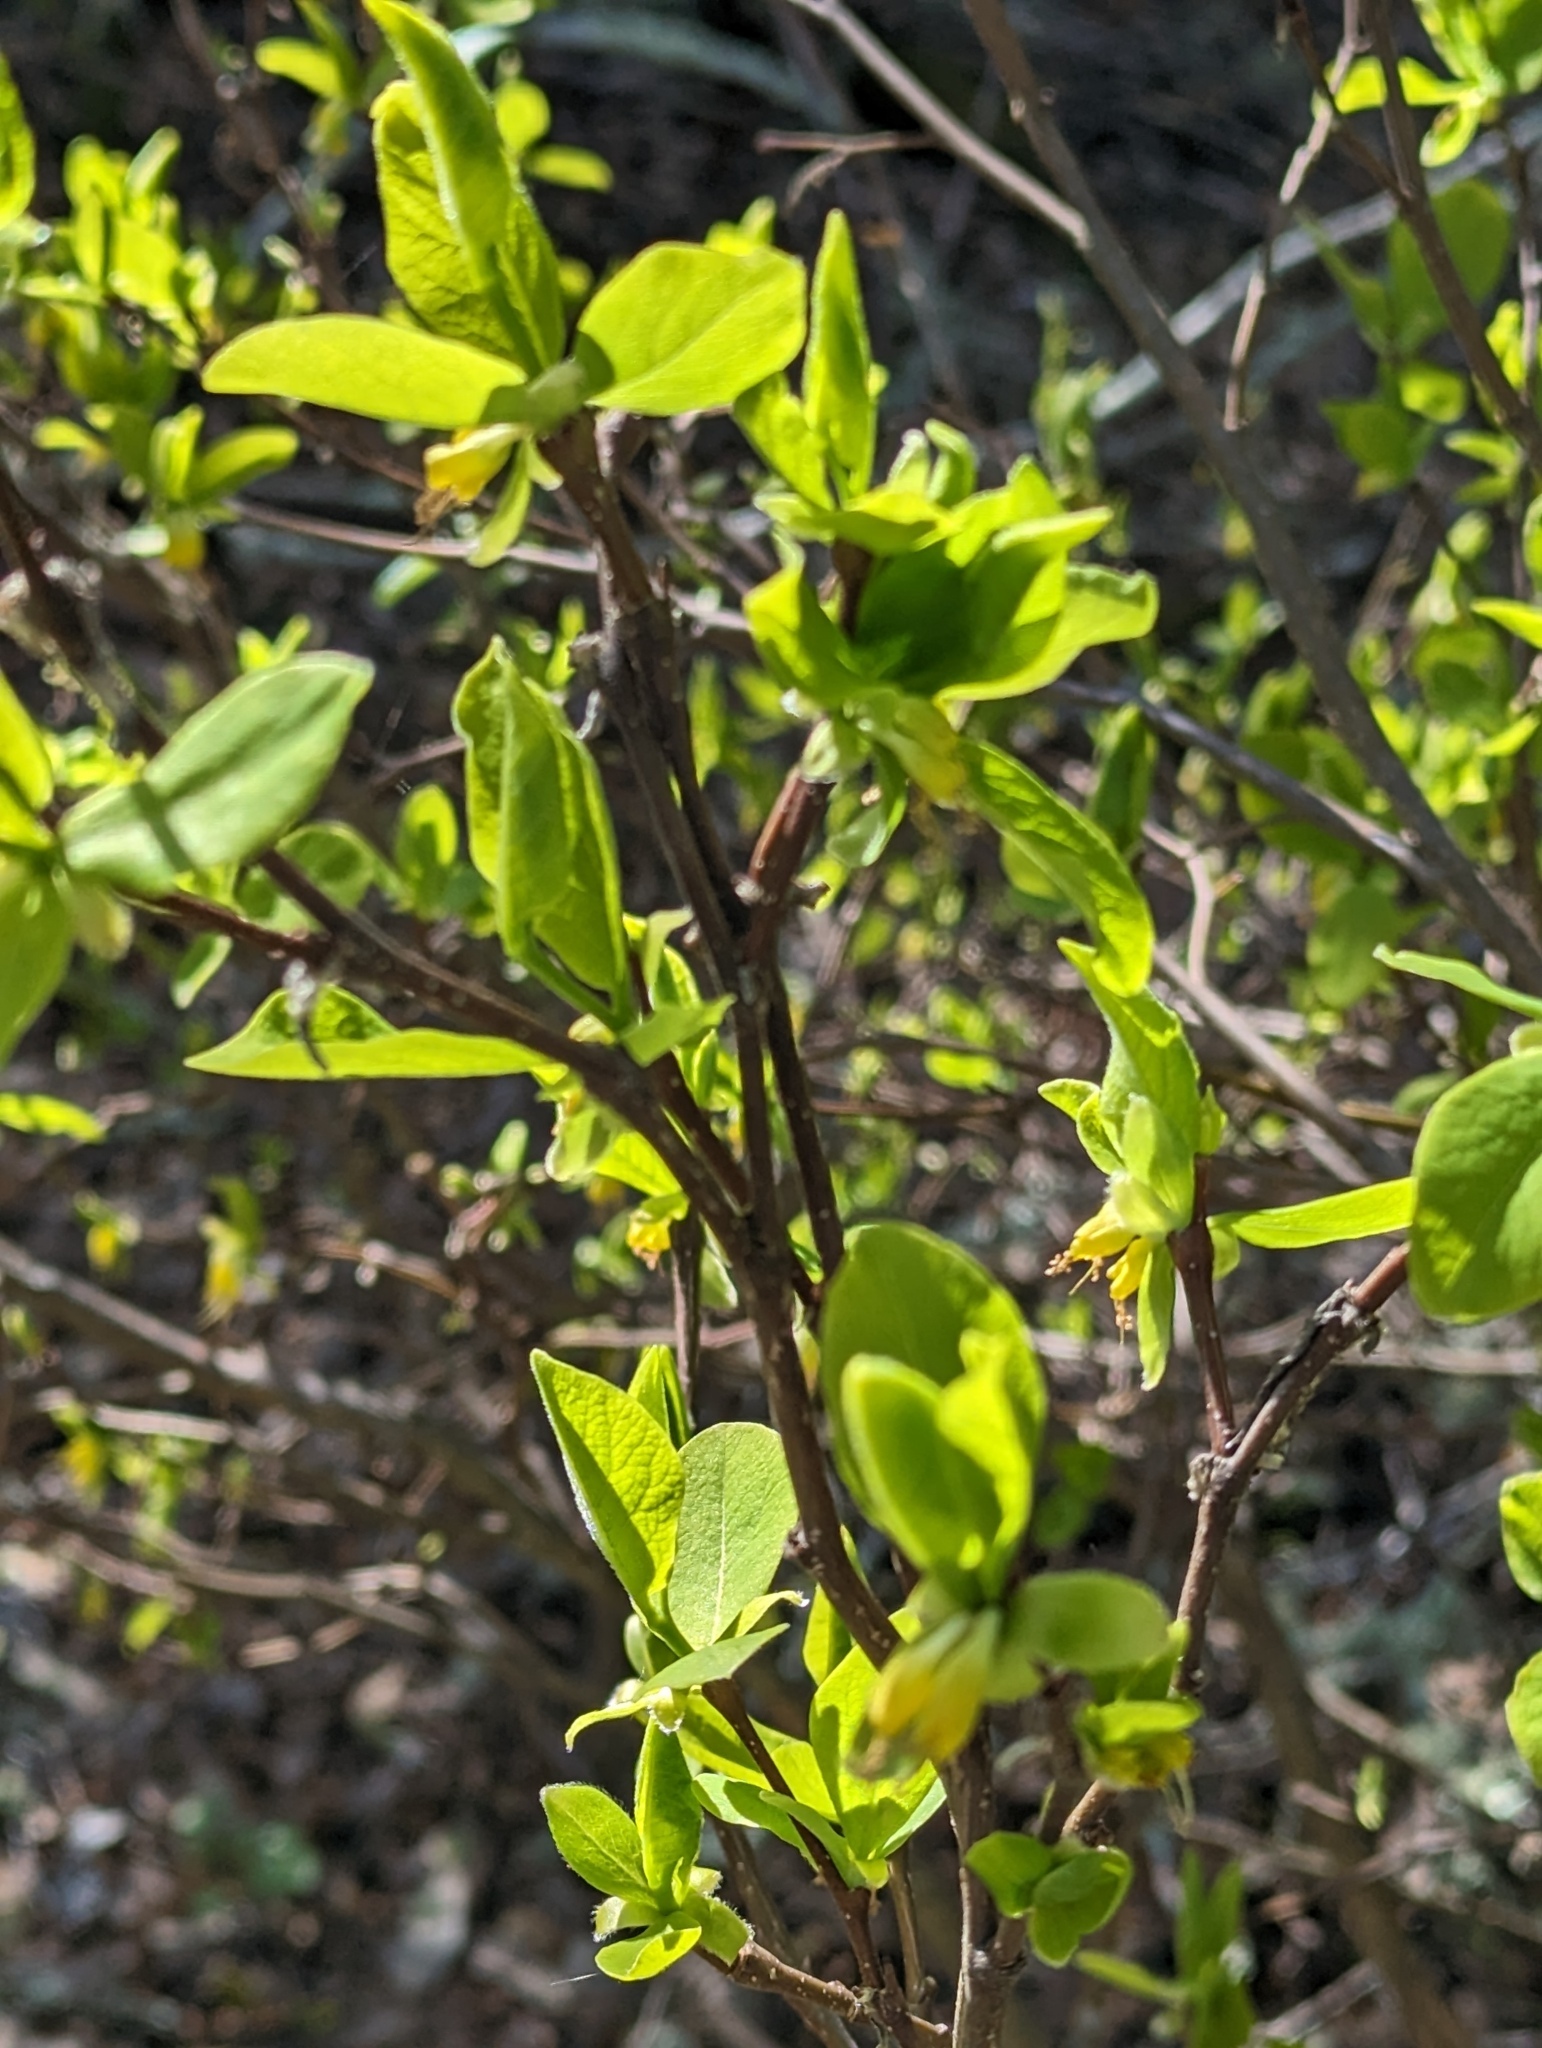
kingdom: Plantae
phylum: Tracheophyta
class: Magnoliopsida
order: Malvales
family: Thymelaeaceae
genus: Dirca
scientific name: Dirca occidentalis
